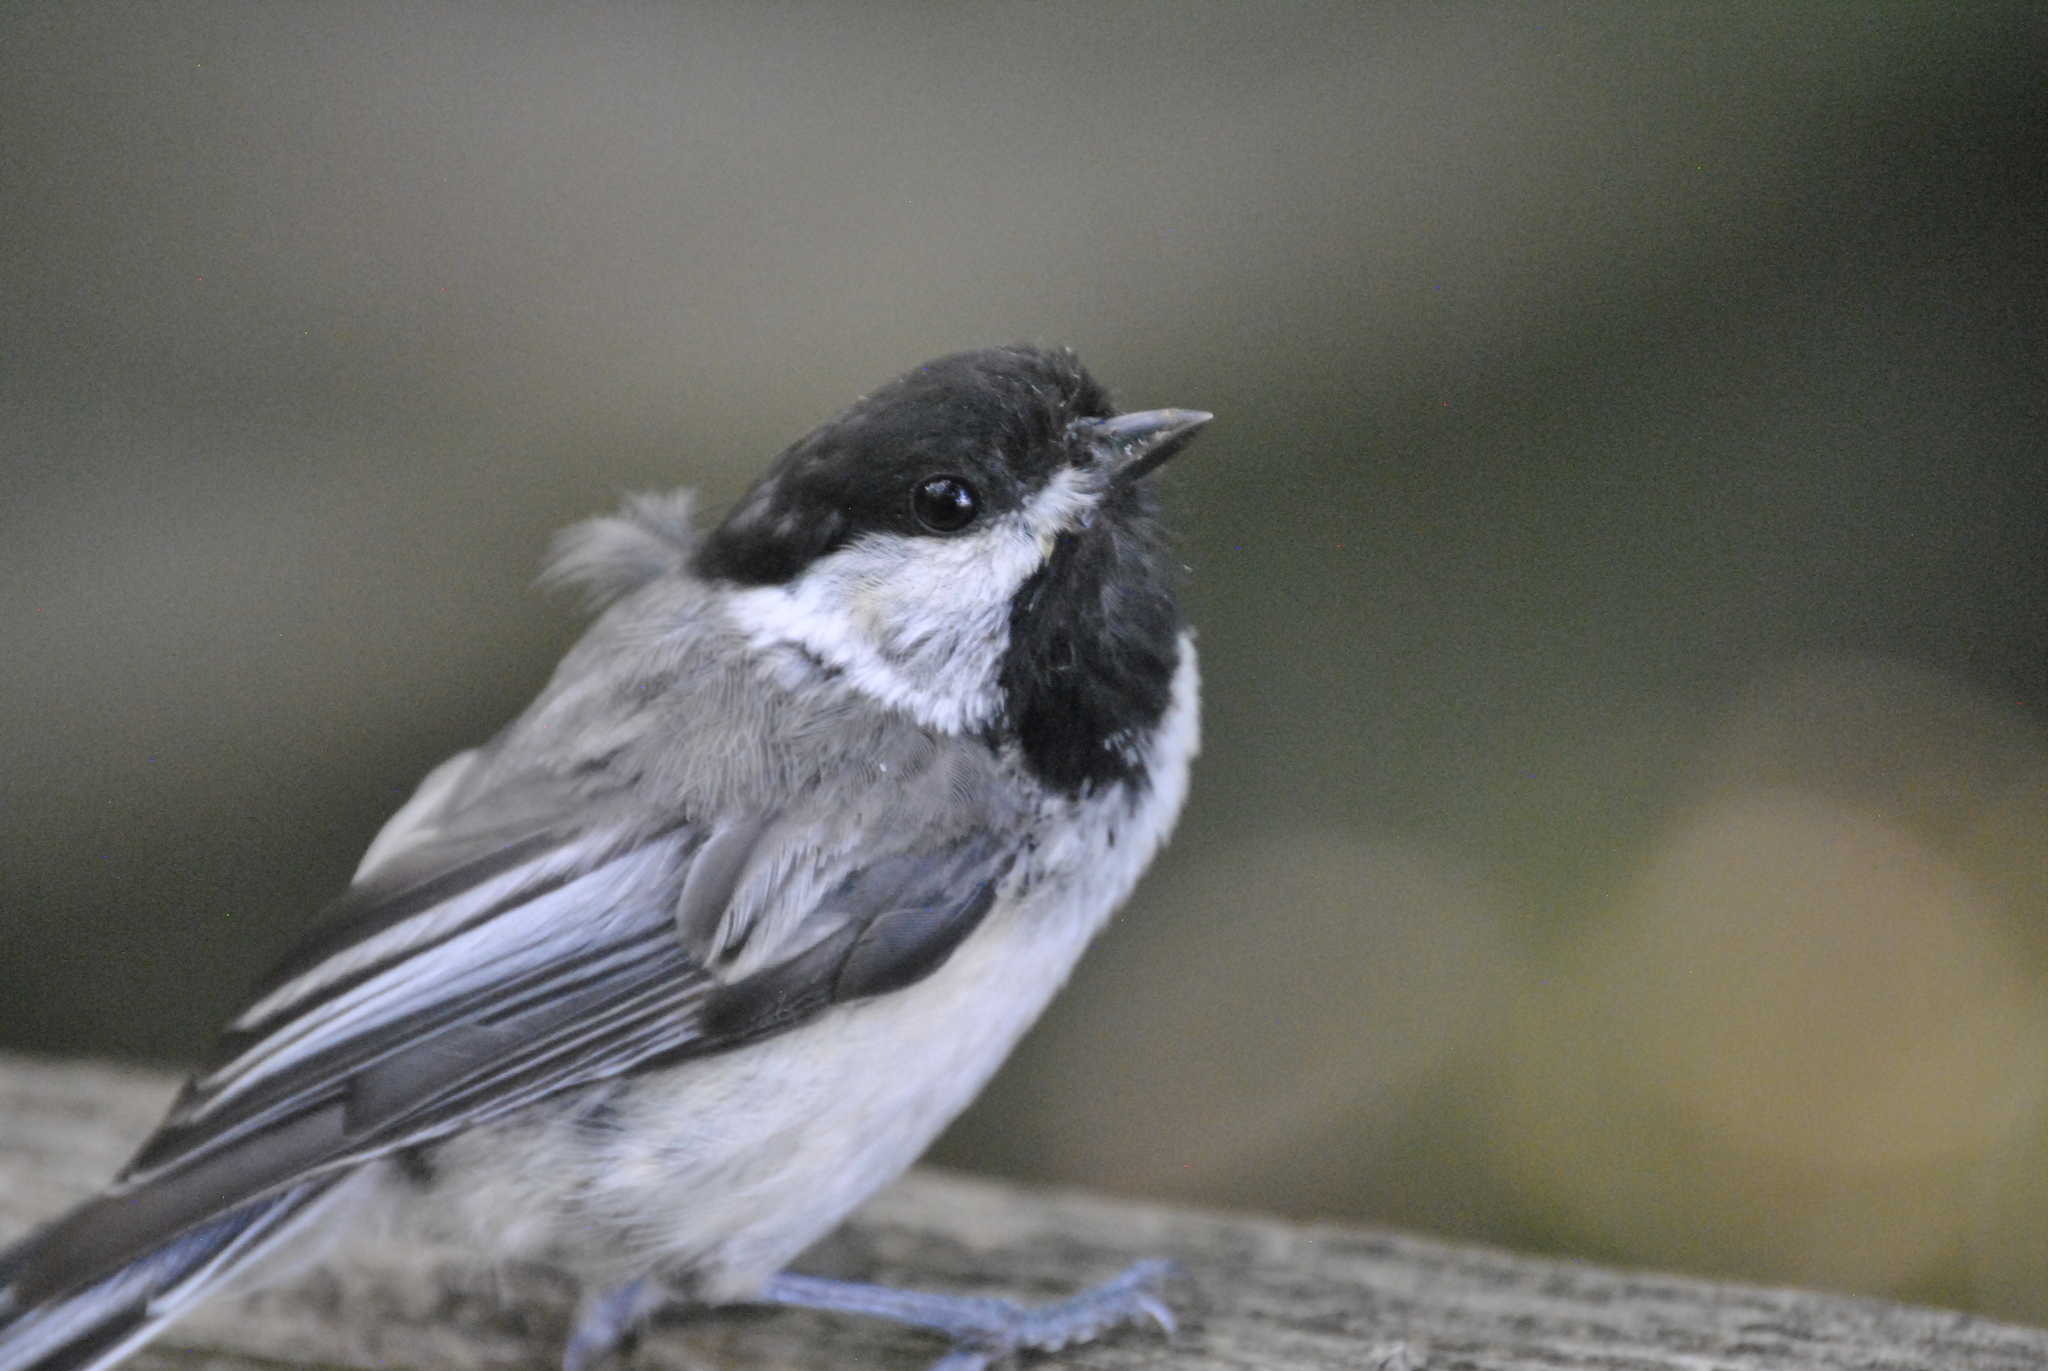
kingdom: Animalia
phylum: Chordata
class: Aves
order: Passeriformes
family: Paridae
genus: Poecile
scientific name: Poecile atricapillus
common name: Black-capped chickadee
